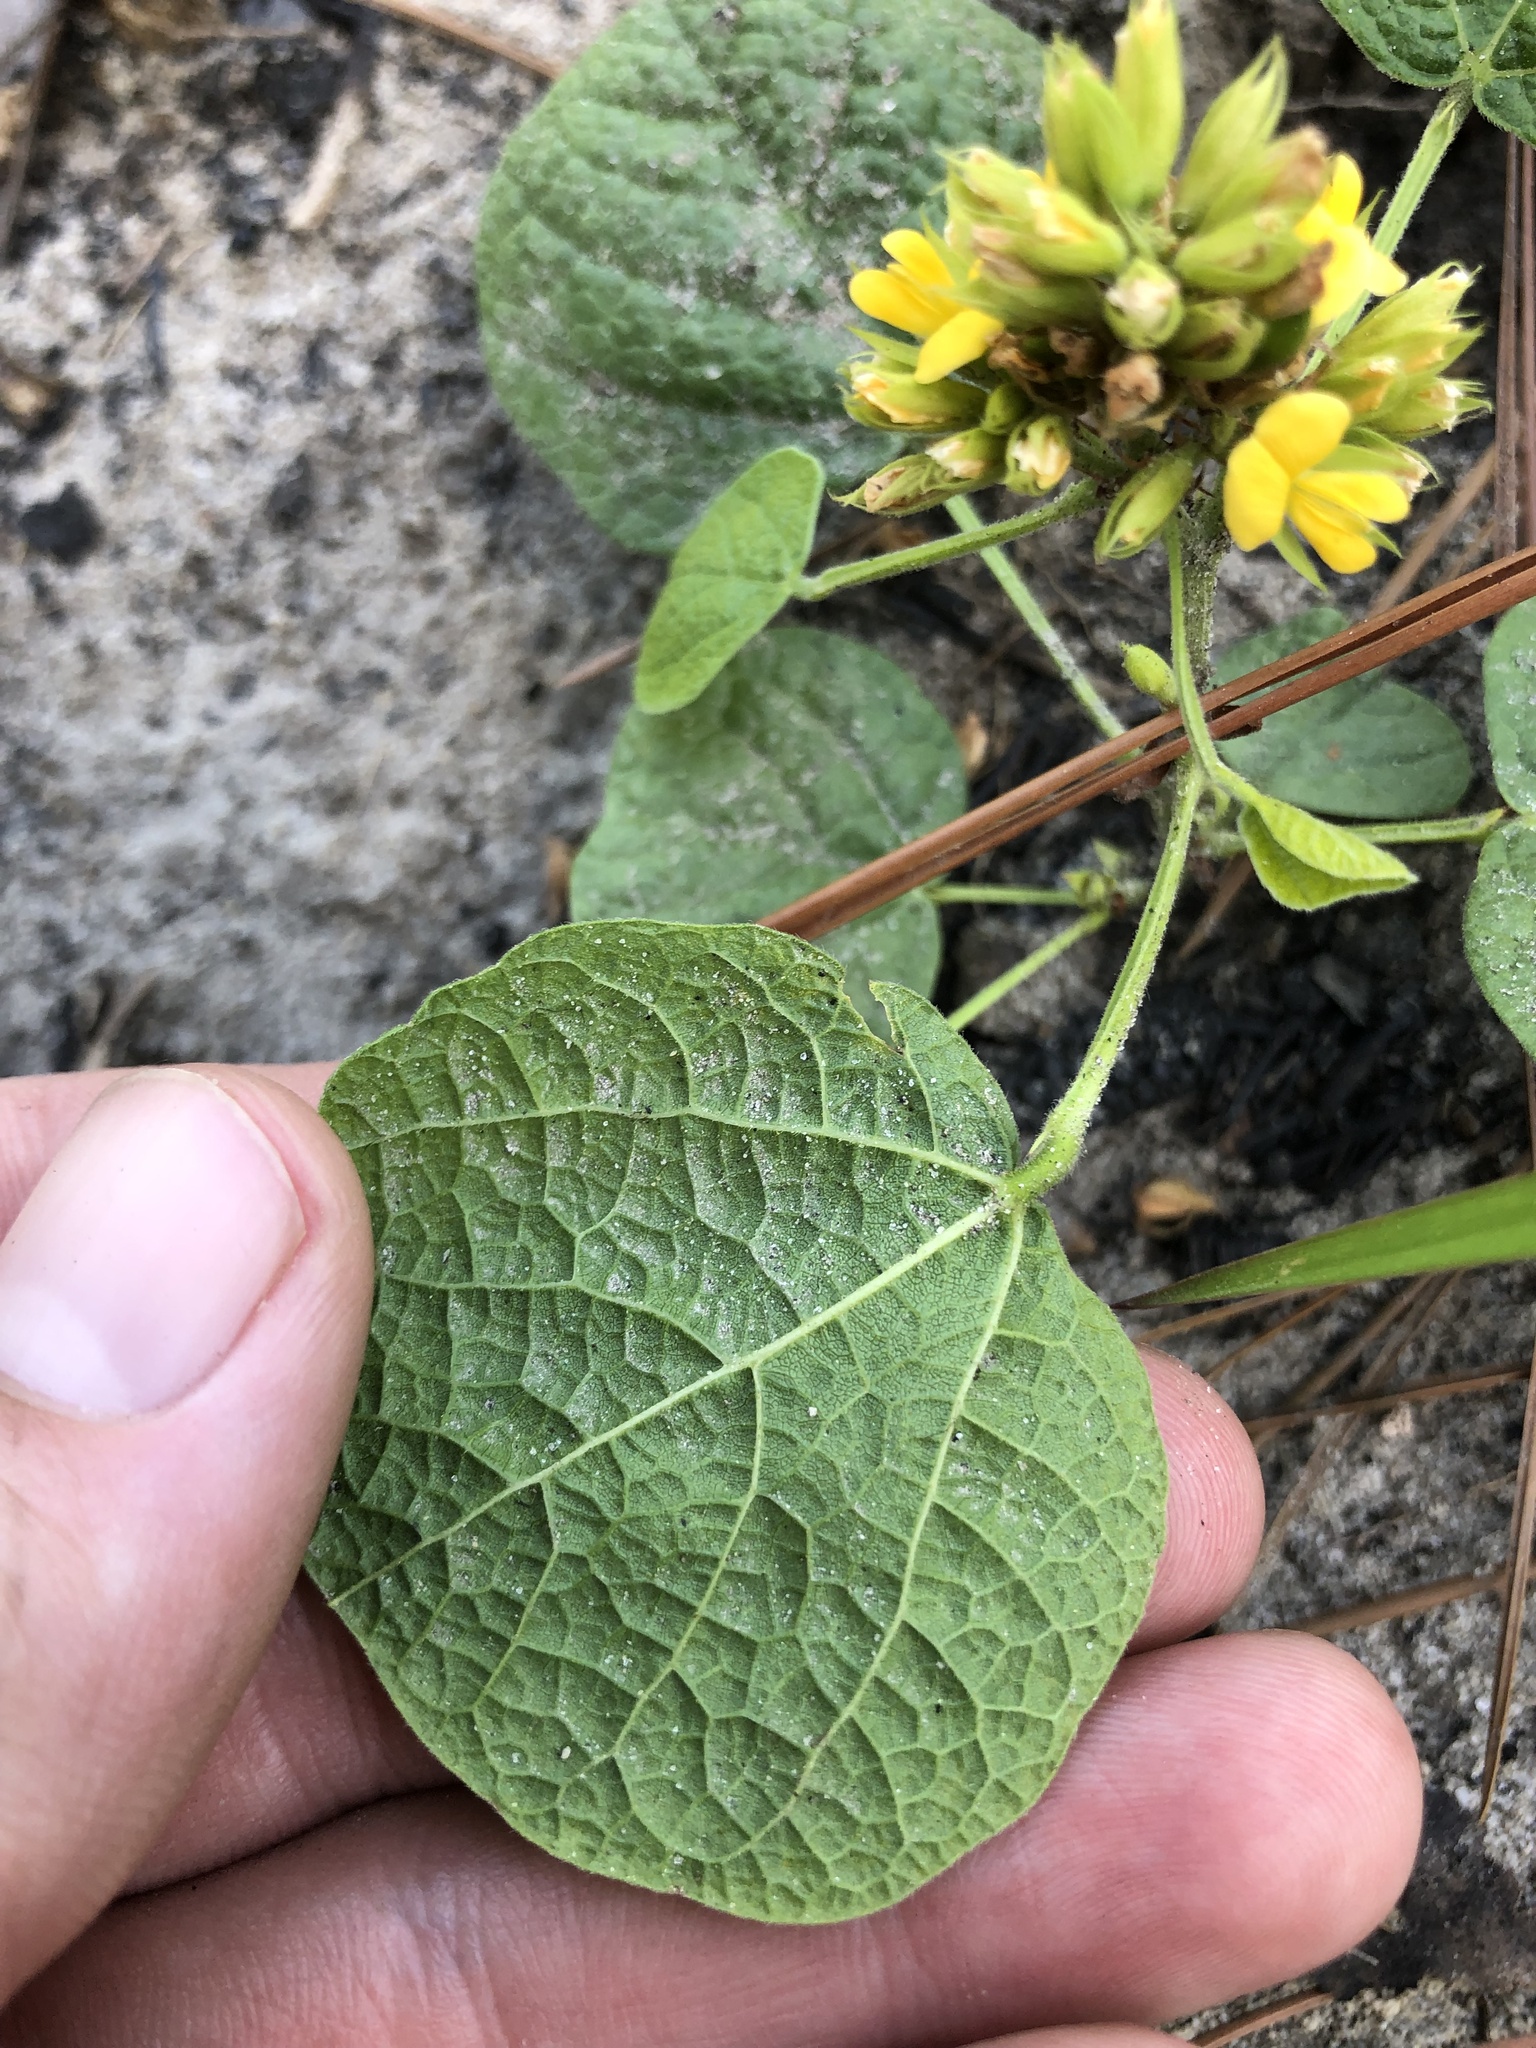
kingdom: Plantae
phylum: Tracheophyta
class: Magnoliopsida
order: Fabales
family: Fabaceae
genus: Rhynchosia
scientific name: Rhynchosia reniformis
